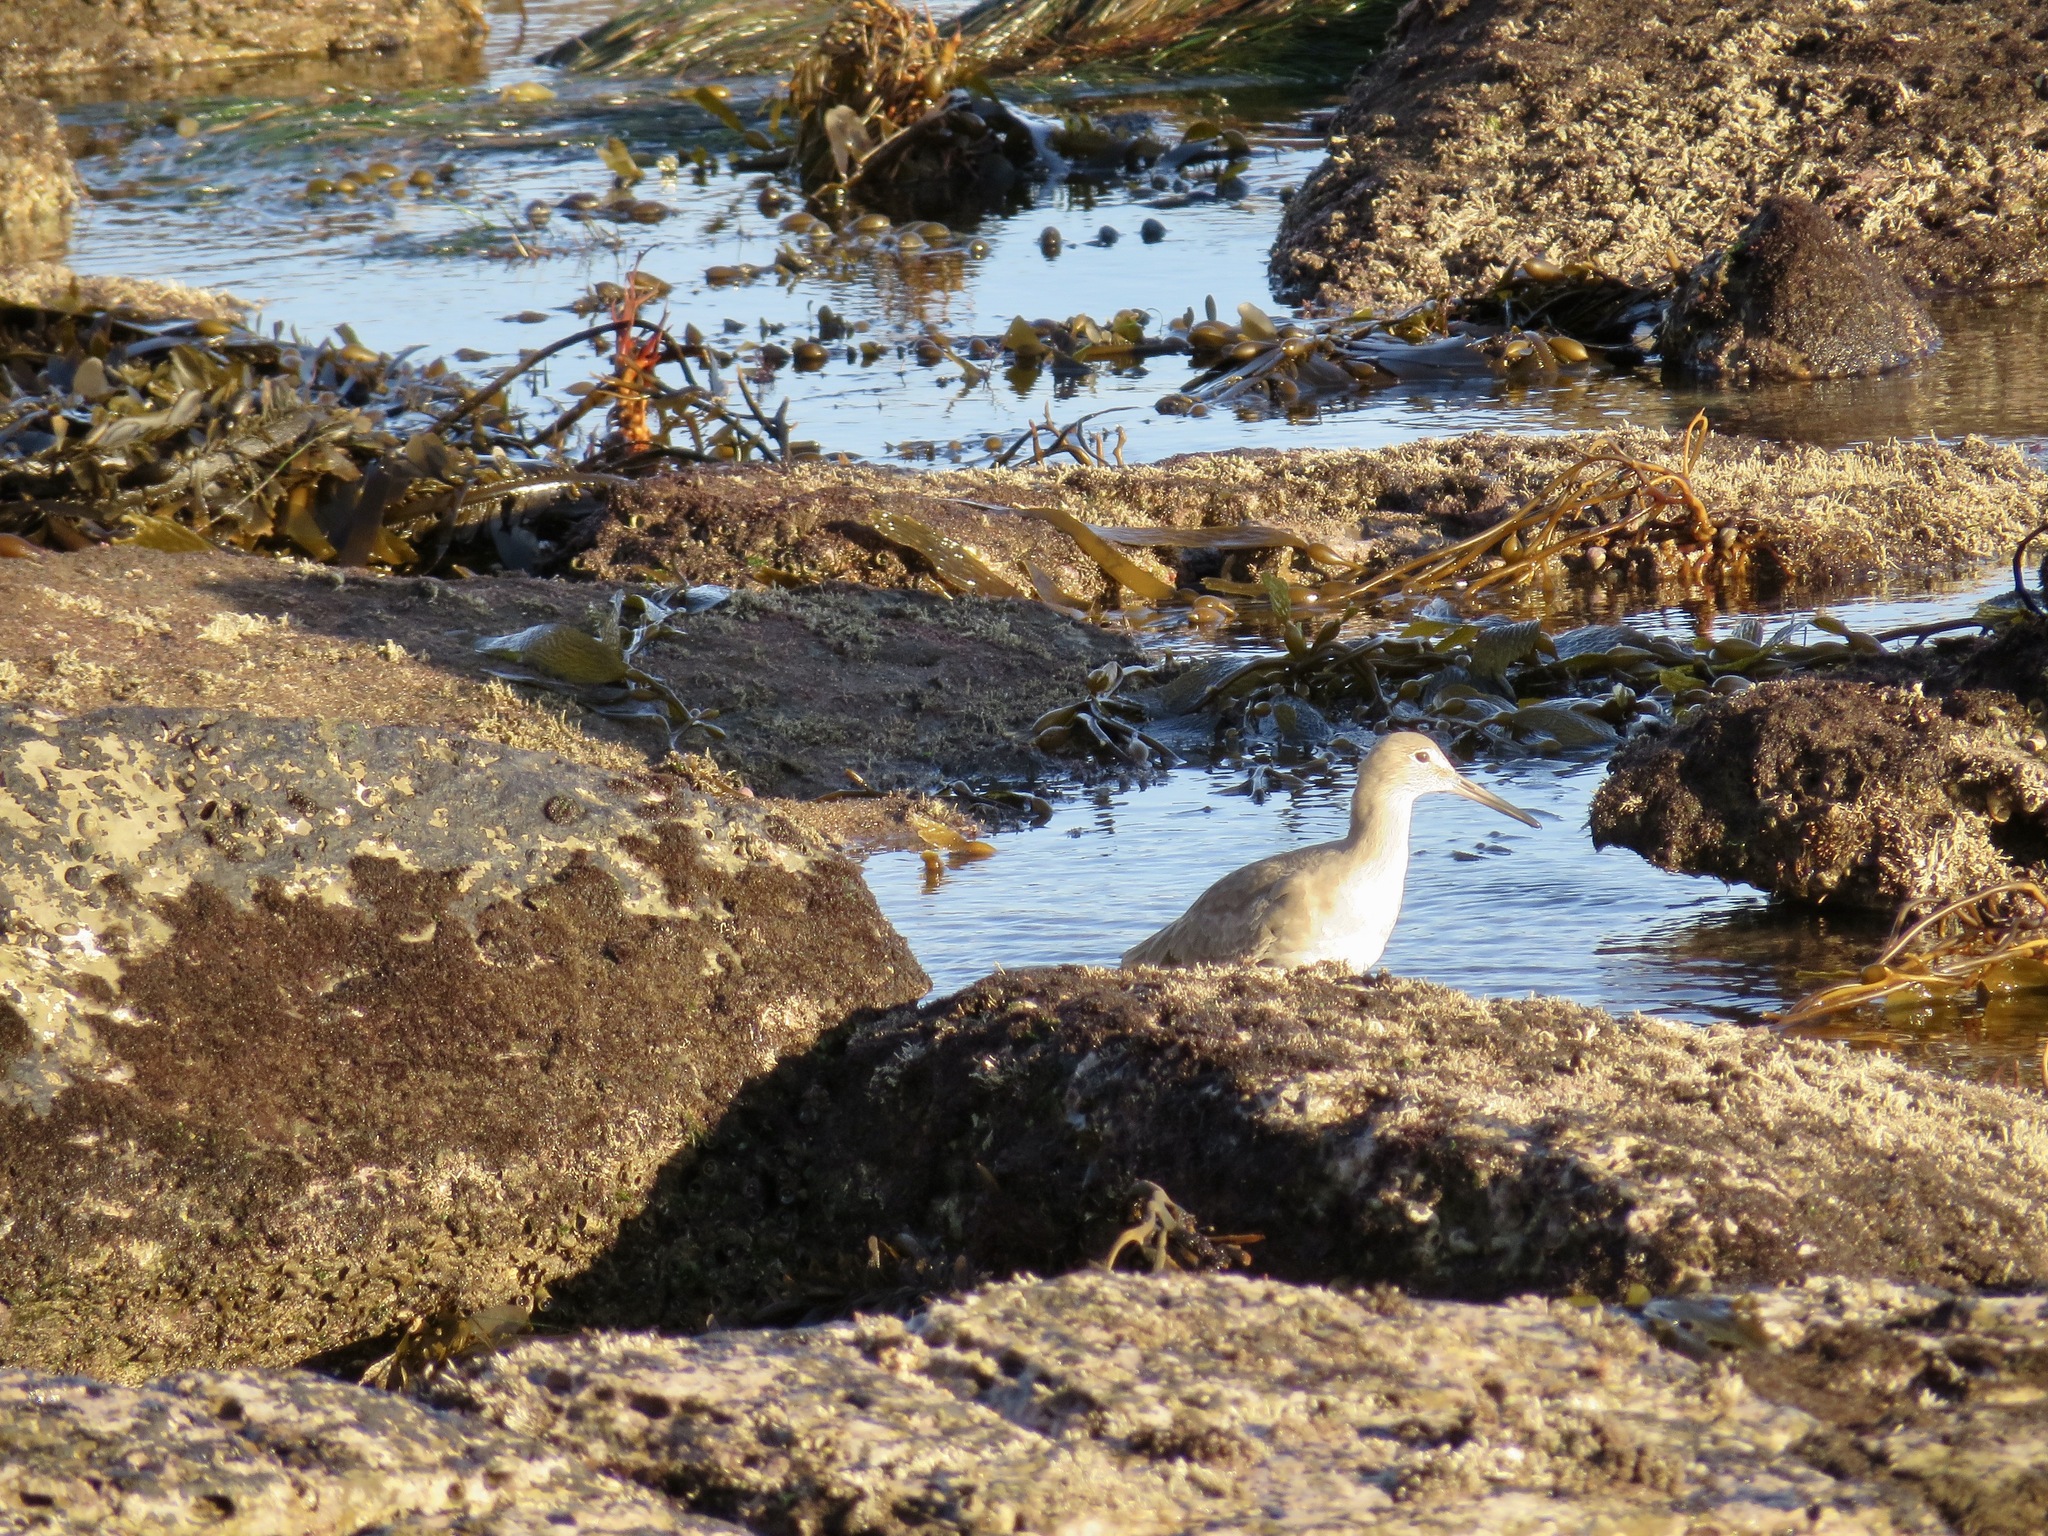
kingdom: Animalia
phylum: Chordata
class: Aves
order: Charadriiformes
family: Scolopacidae
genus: Tringa
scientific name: Tringa semipalmata
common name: Willet
